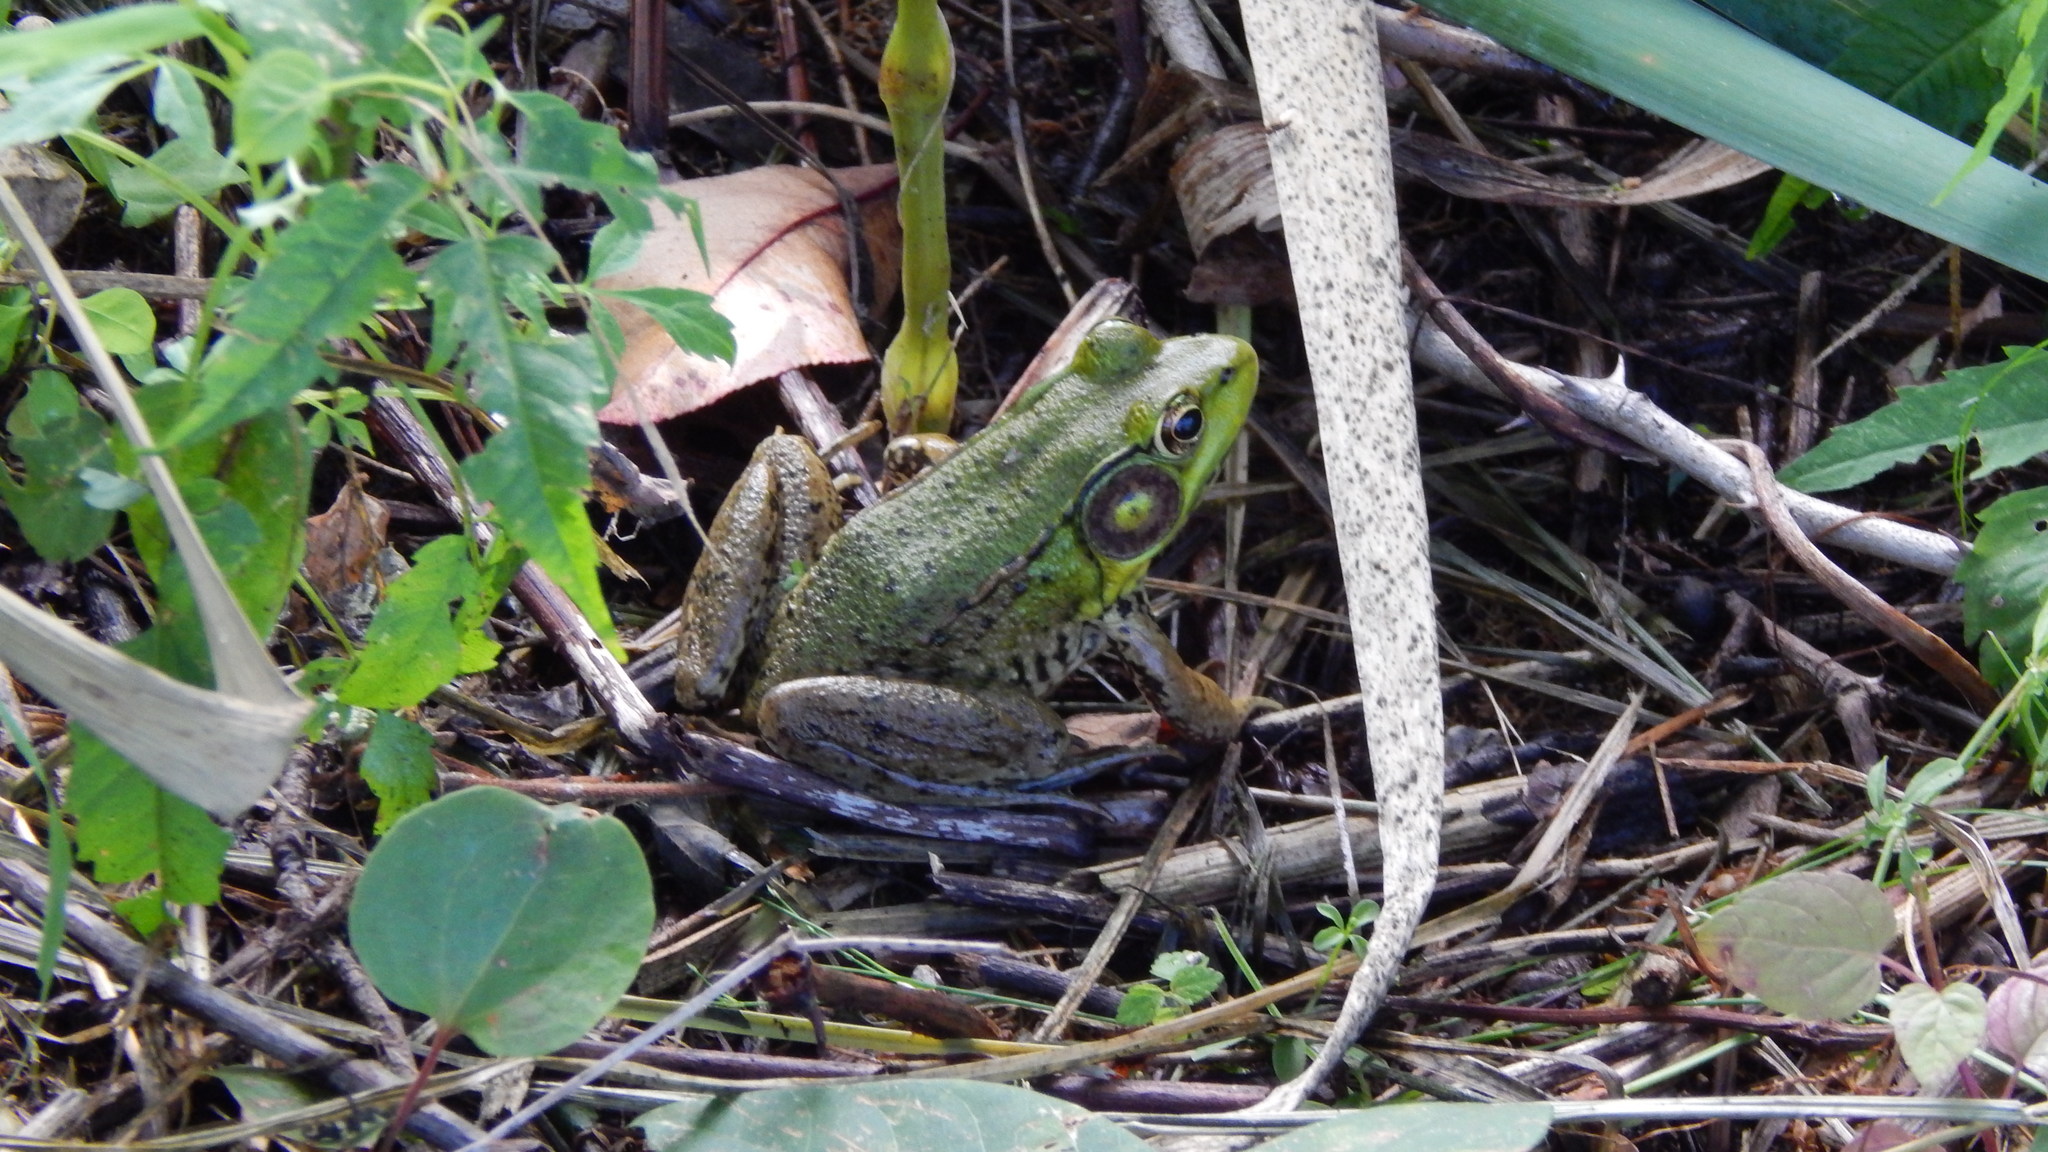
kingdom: Animalia
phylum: Chordata
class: Amphibia
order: Anura
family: Ranidae
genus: Lithobates
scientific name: Lithobates clamitans
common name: Green frog
